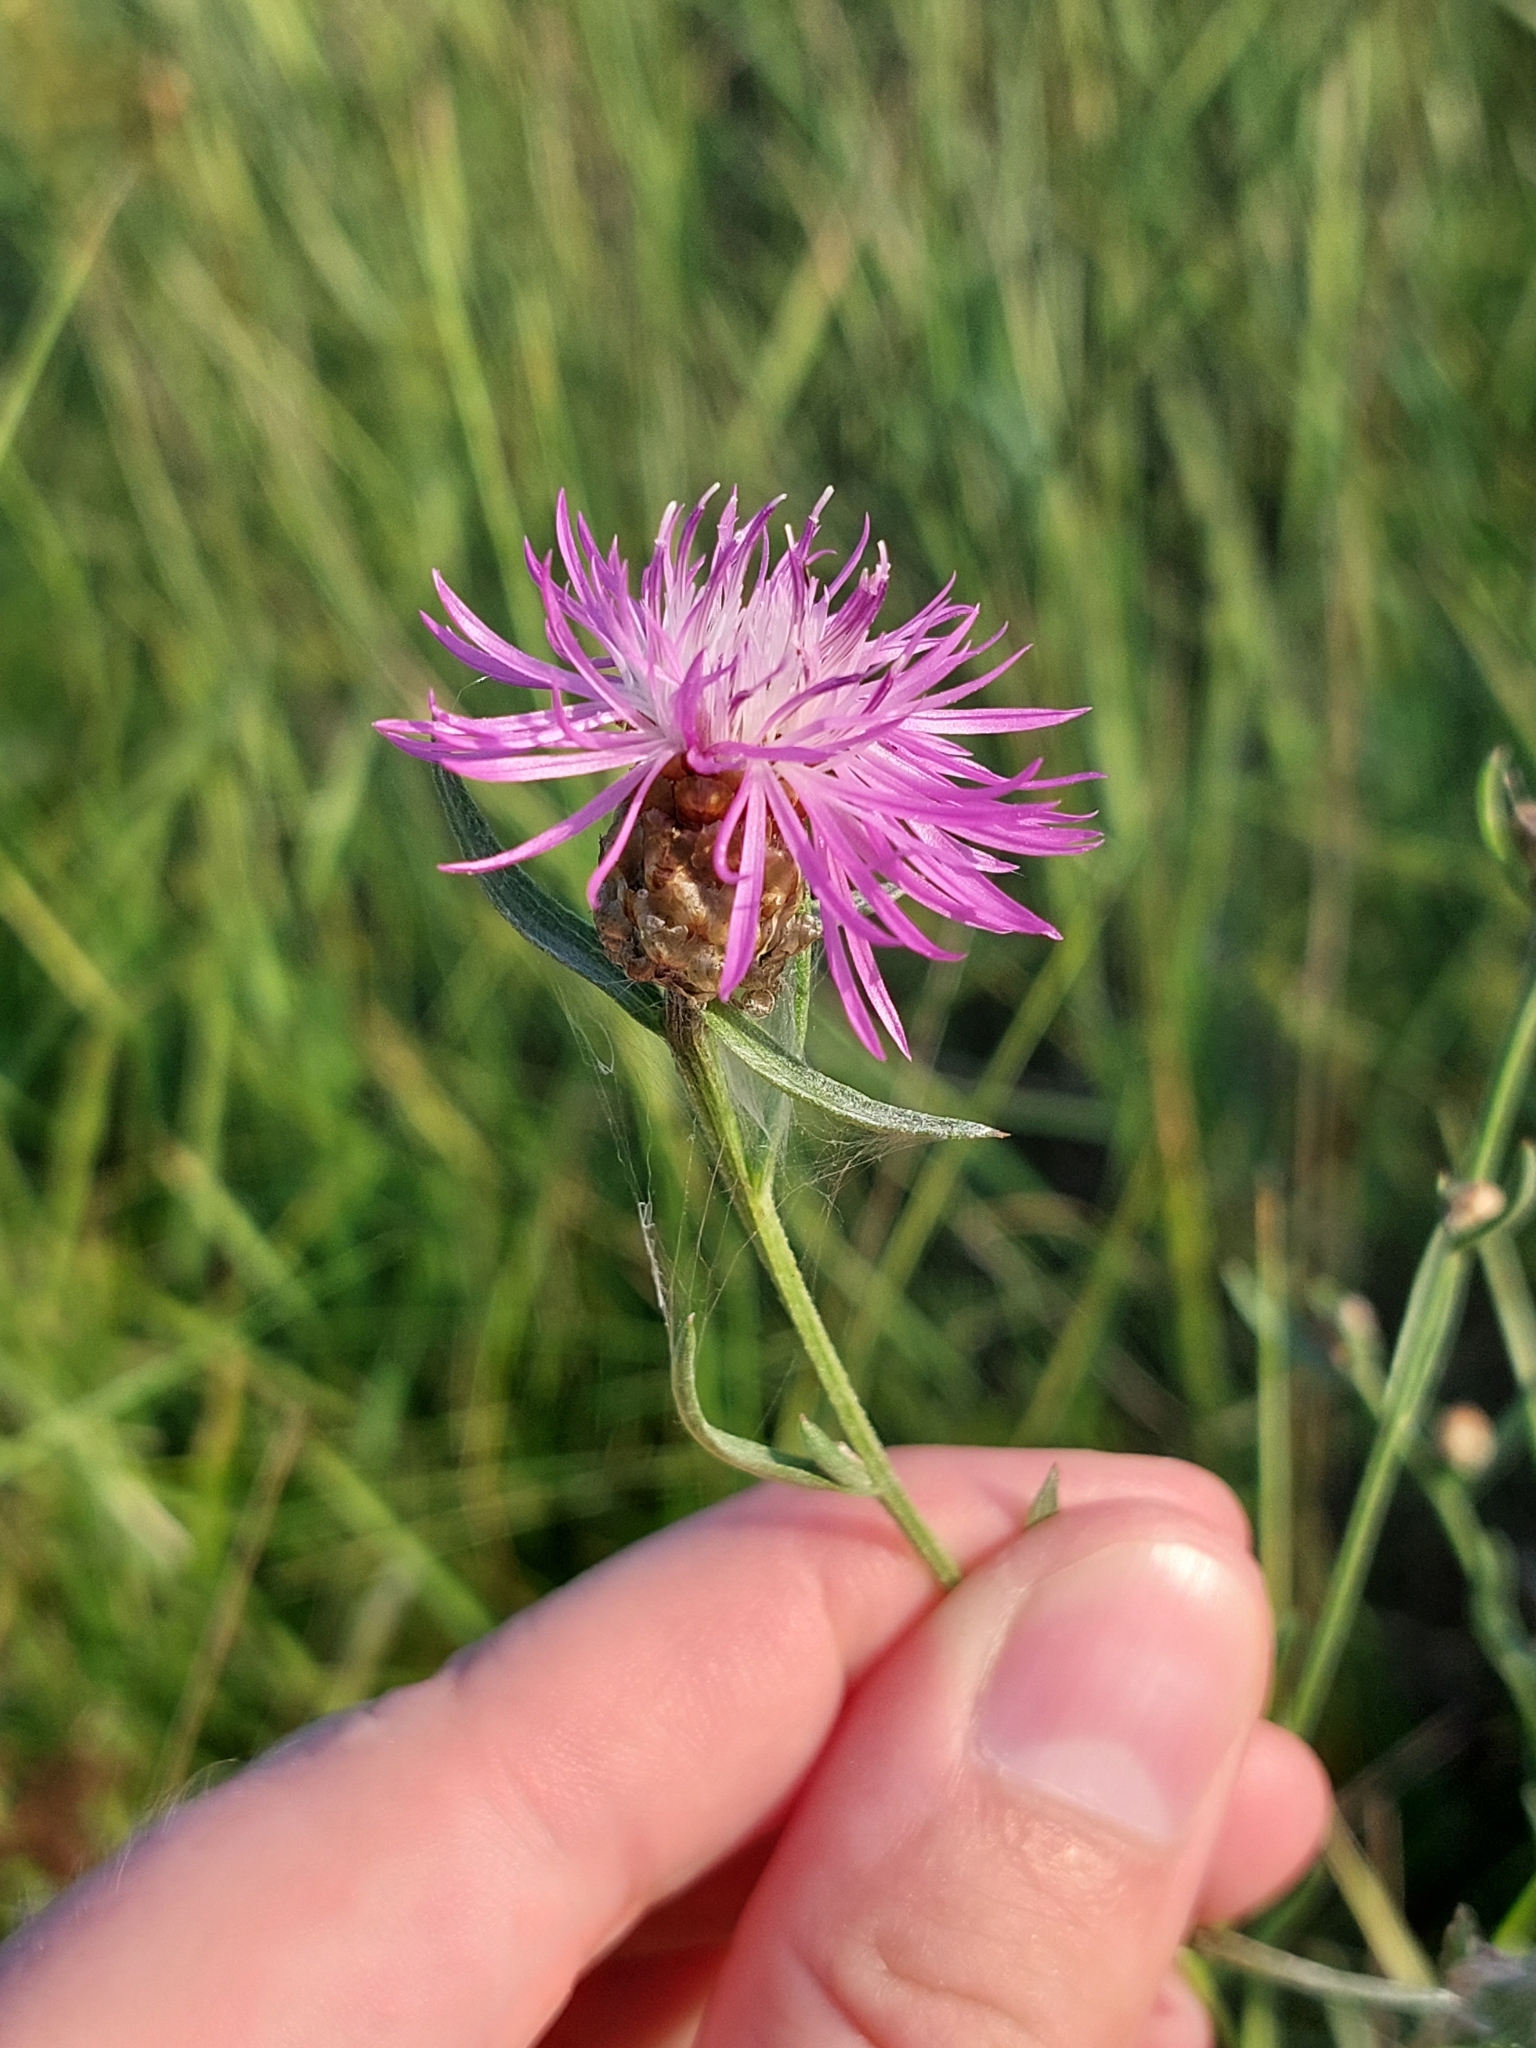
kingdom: Plantae
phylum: Tracheophyta
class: Magnoliopsida
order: Asterales
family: Asteraceae
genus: Centaurea
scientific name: Centaurea jacea
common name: Brown knapweed
